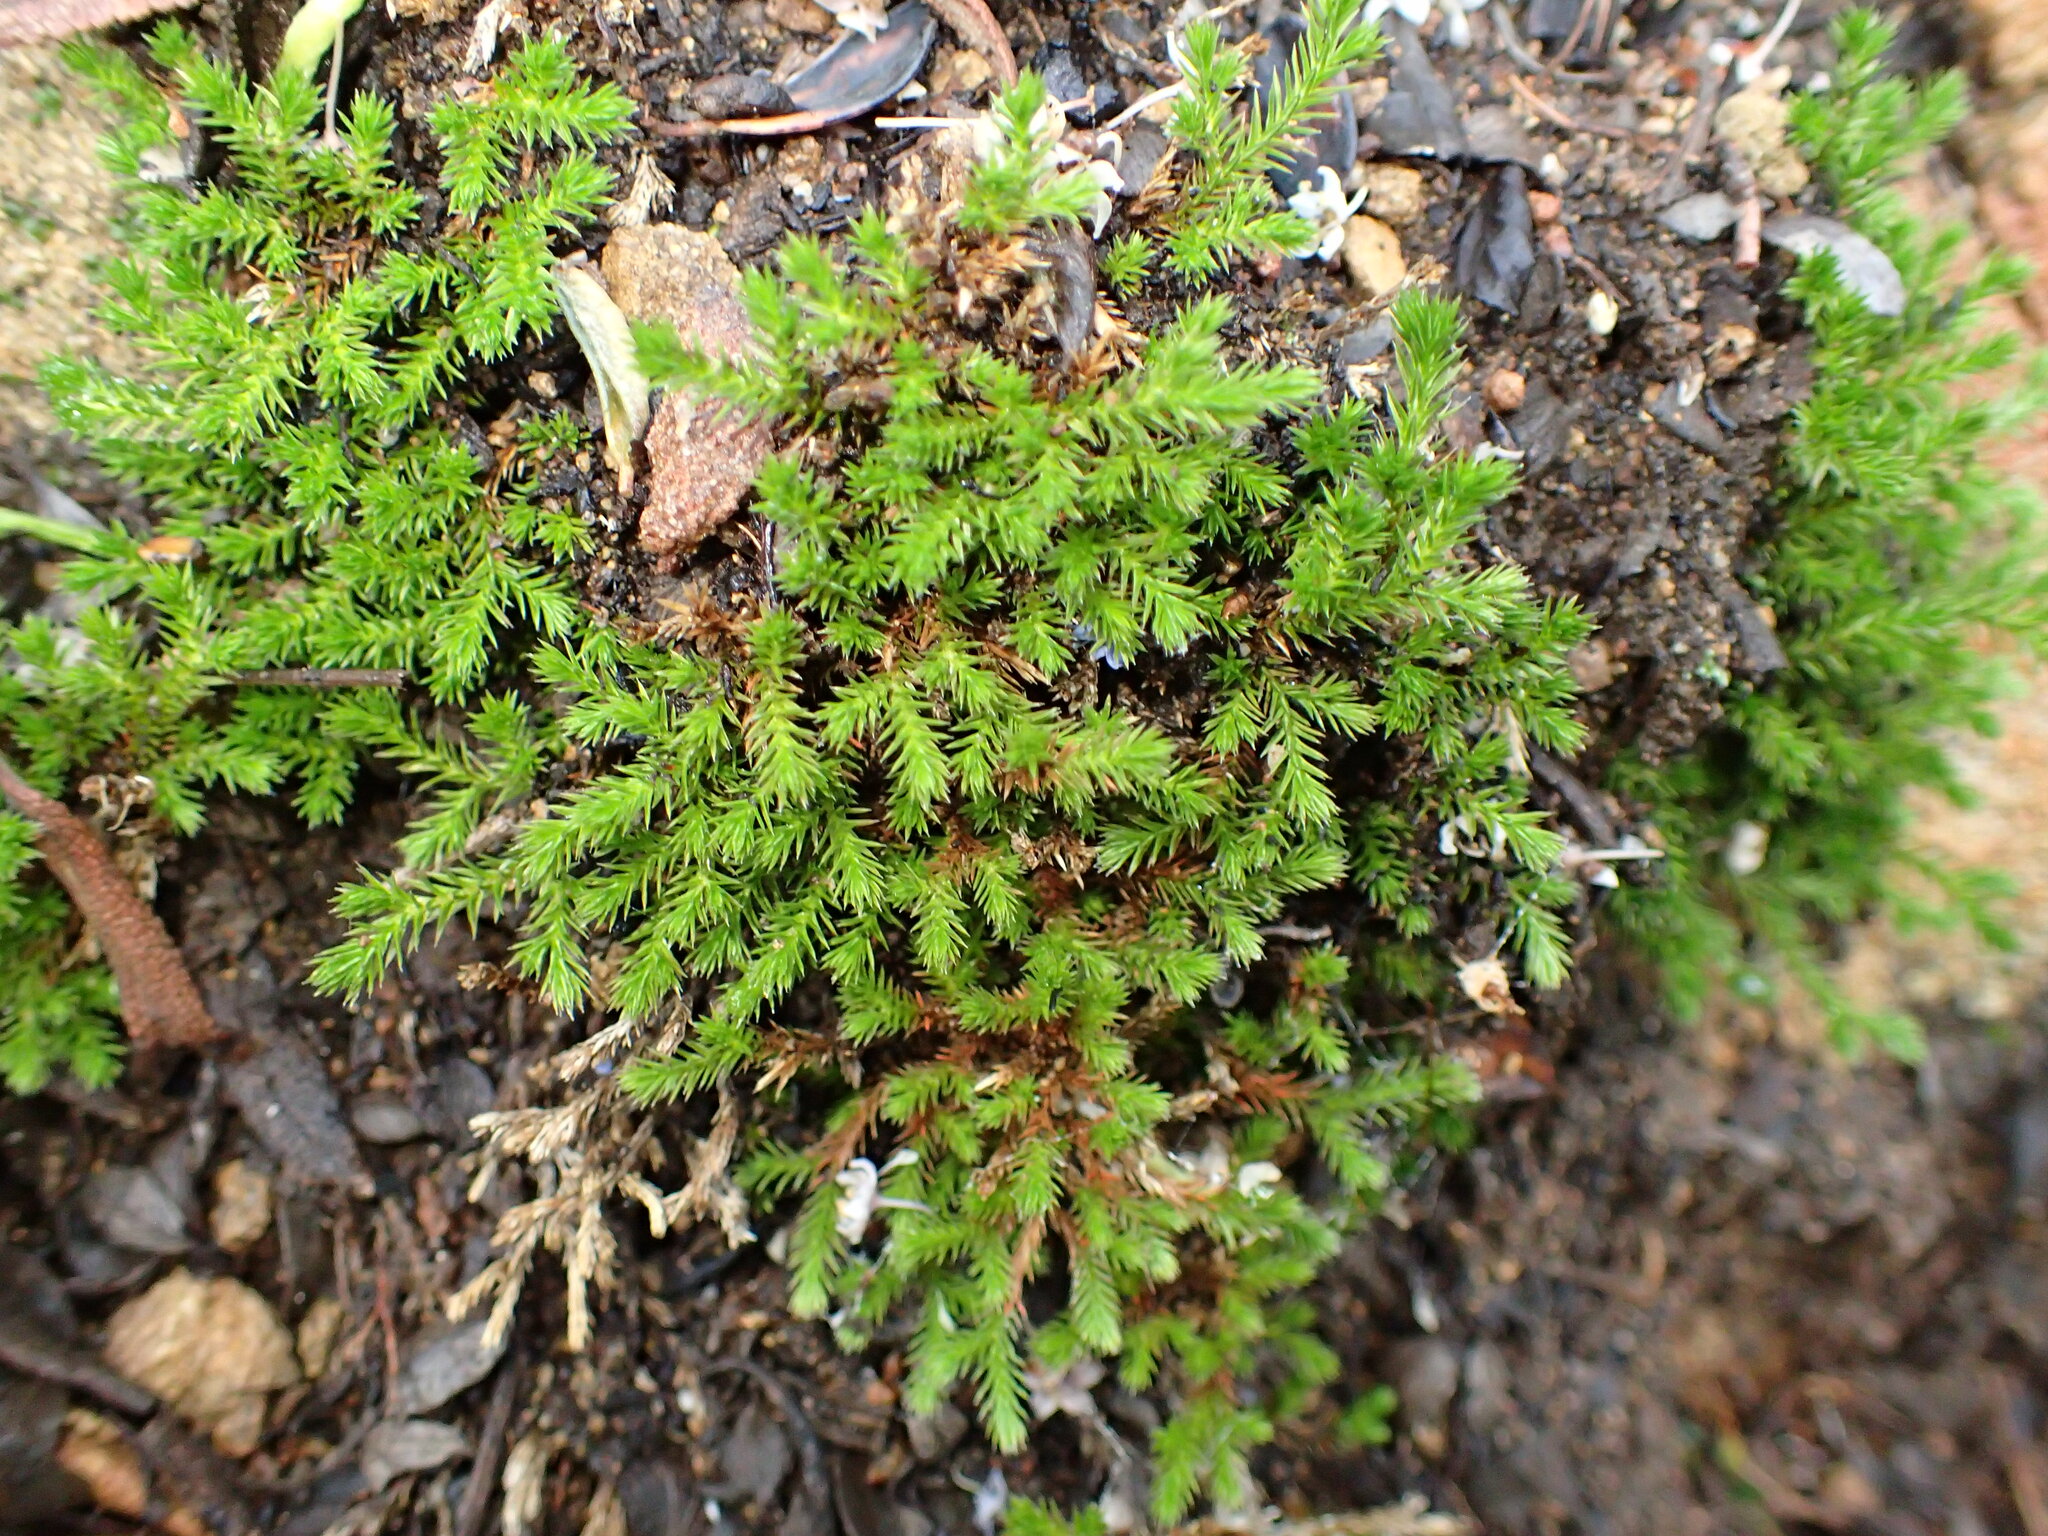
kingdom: Plantae
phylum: Tracheophyta
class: Lycopodiopsida
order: Selaginellales
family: Selaginellaceae
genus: Selaginella
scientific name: Selaginella bigelovii
